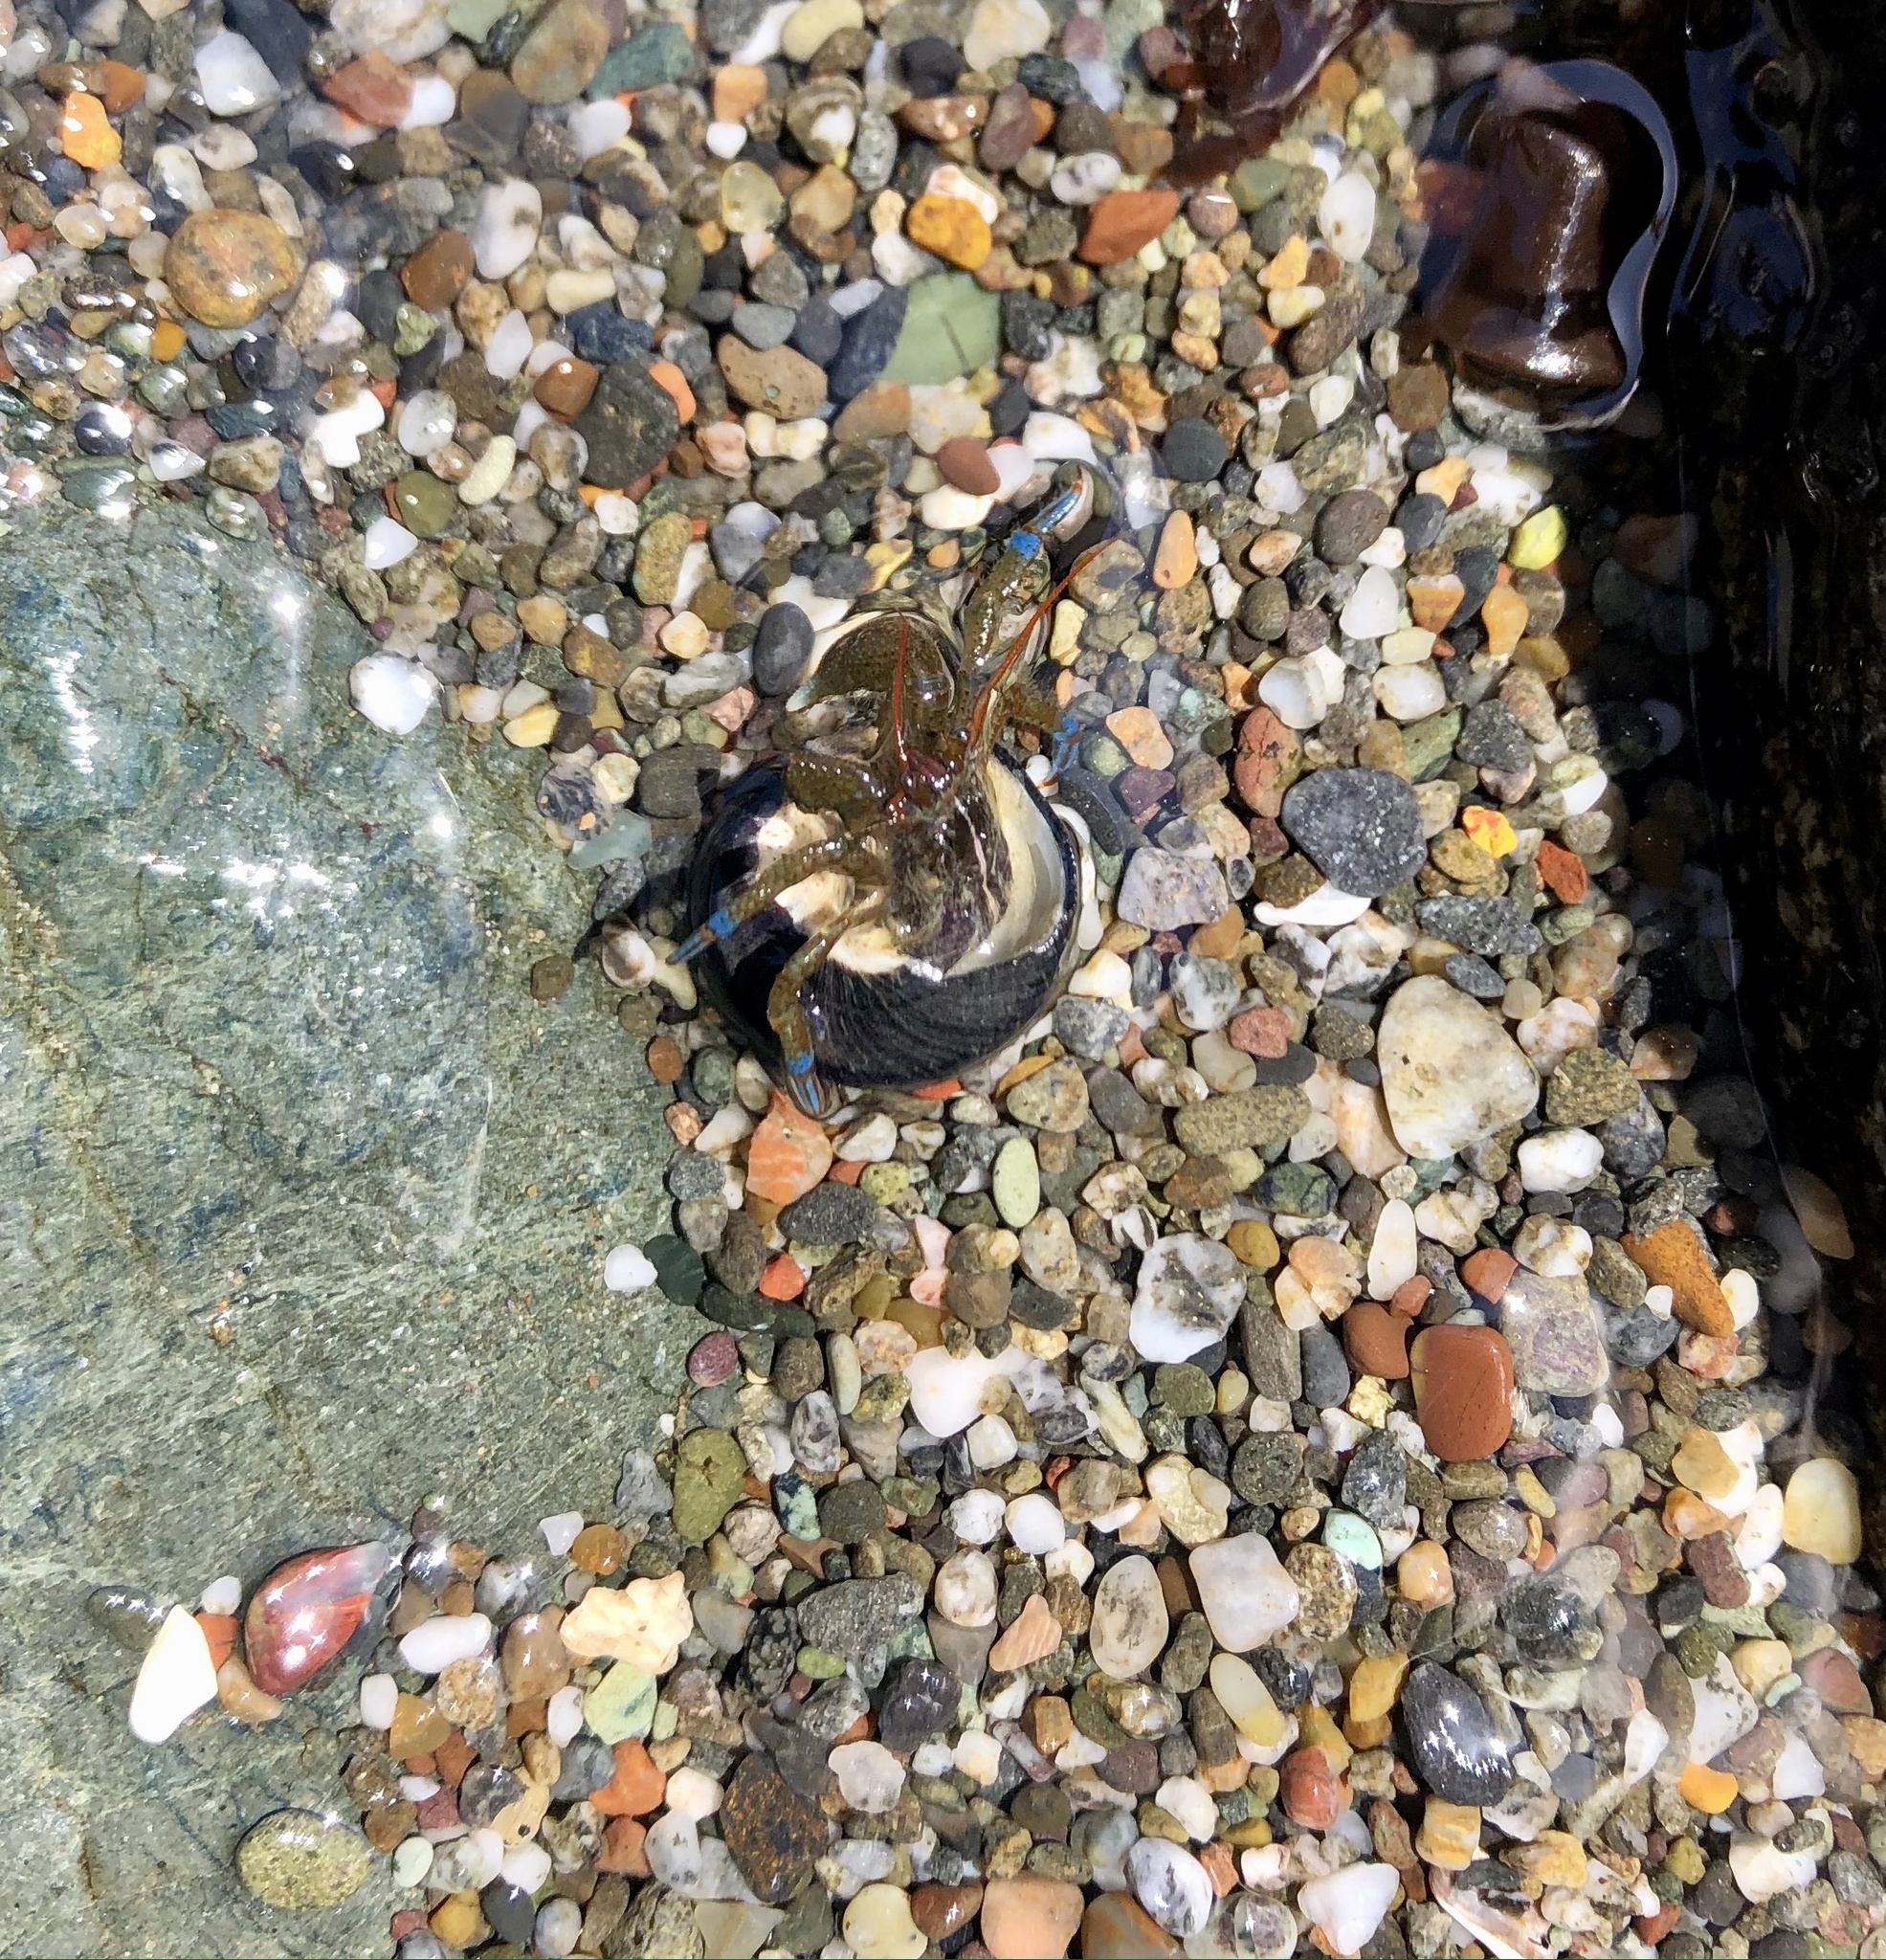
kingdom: Animalia
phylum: Arthropoda
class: Malacostraca
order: Decapoda
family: Paguridae
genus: Pagurus
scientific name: Pagurus samuelis
